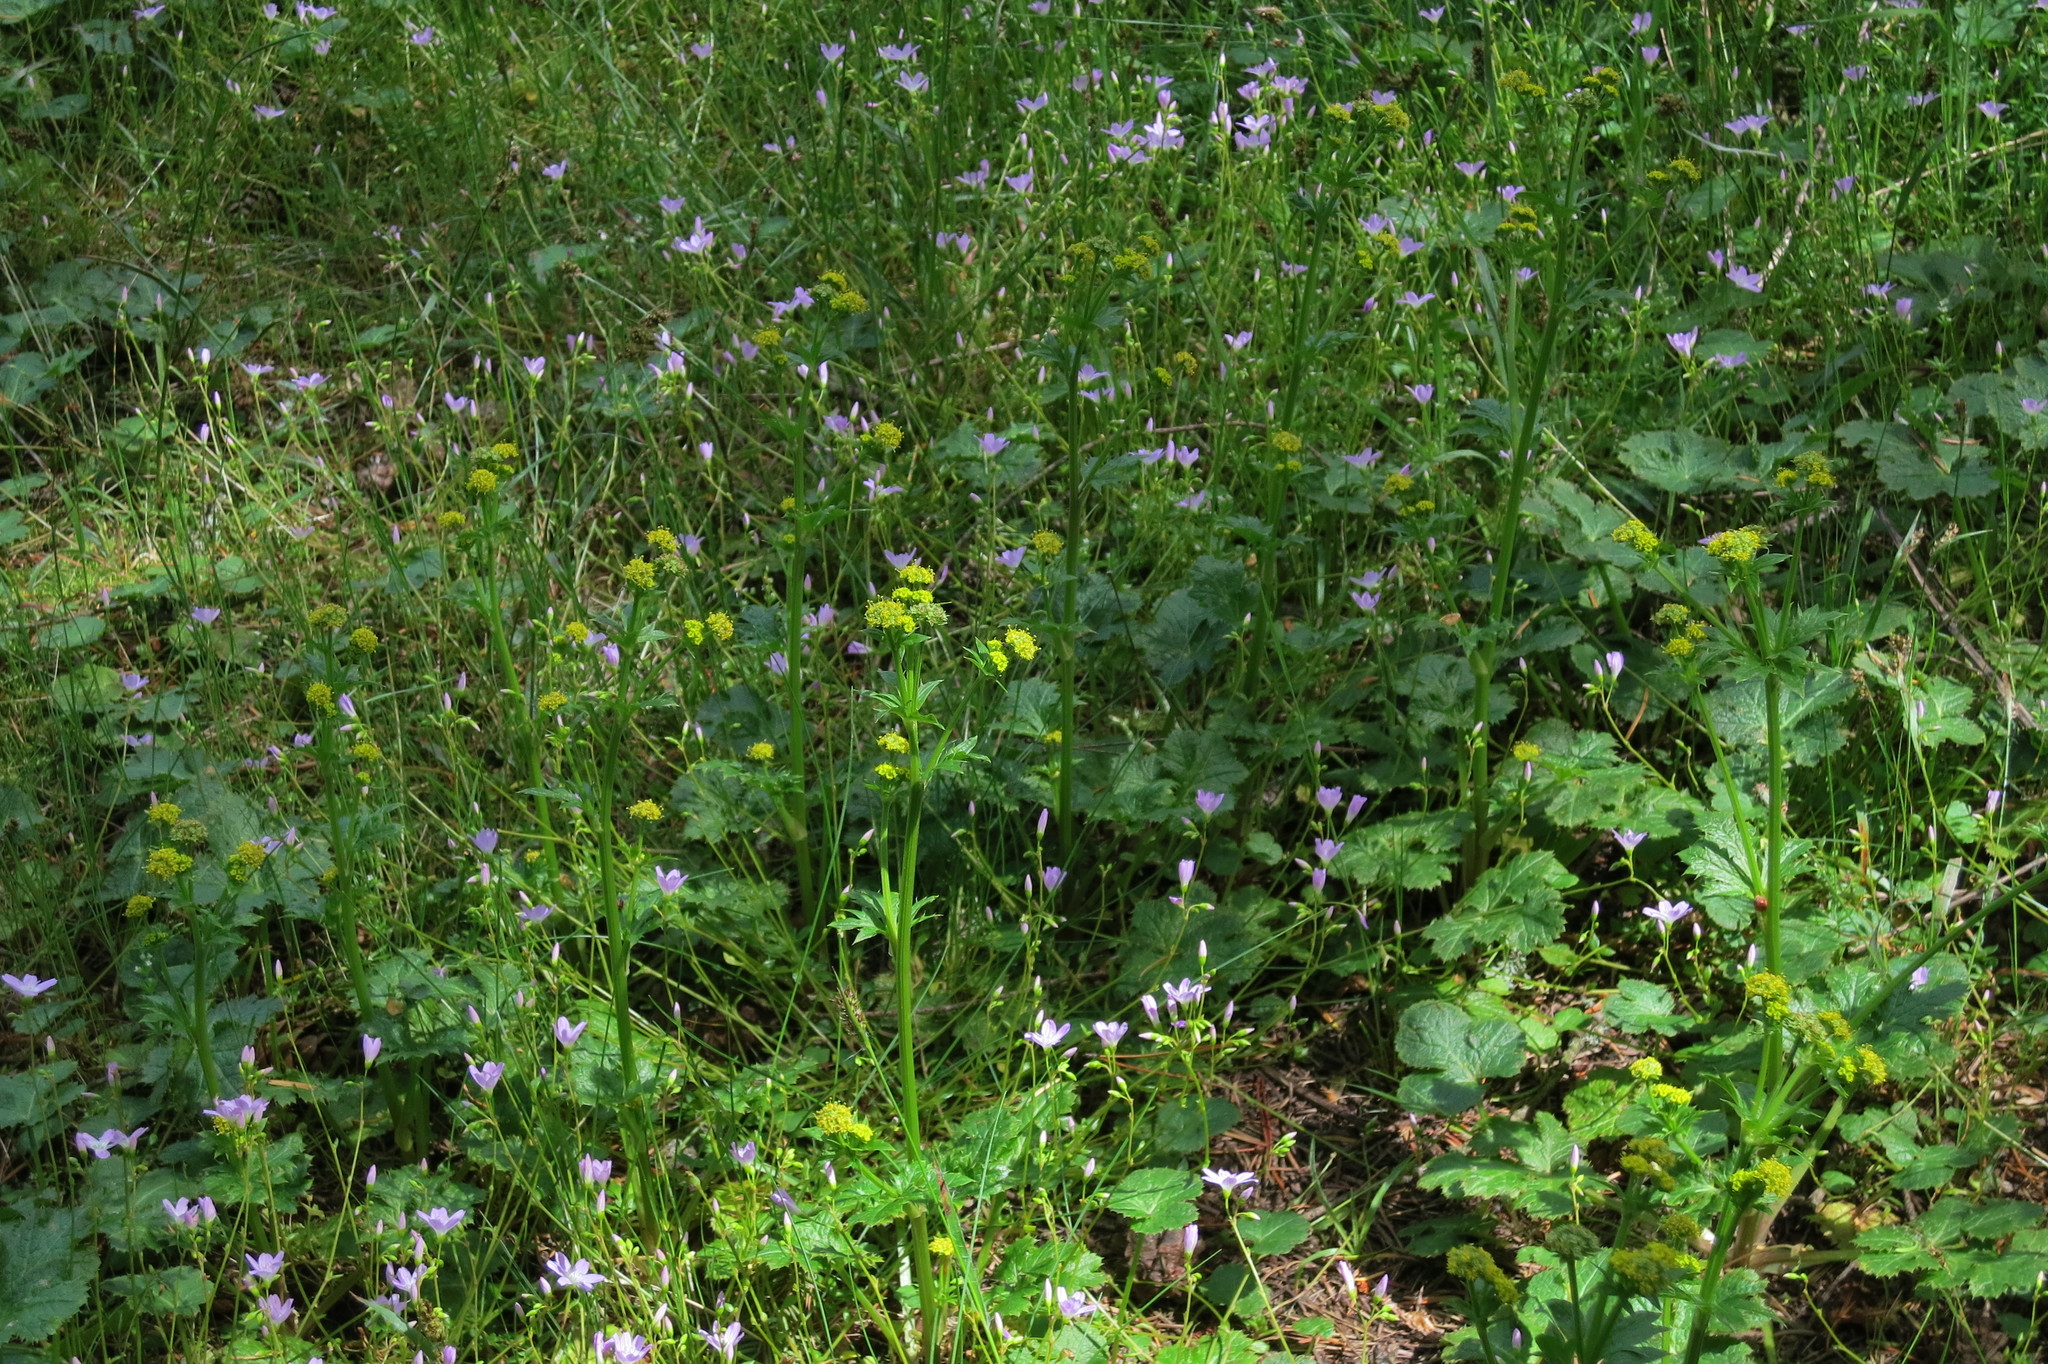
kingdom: Plantae
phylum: Tracheophyta
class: Magnoliopsida
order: Apiales
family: Apiaceae
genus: Sanicula
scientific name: Sanicula crassicaulis
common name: Western snakeroot
